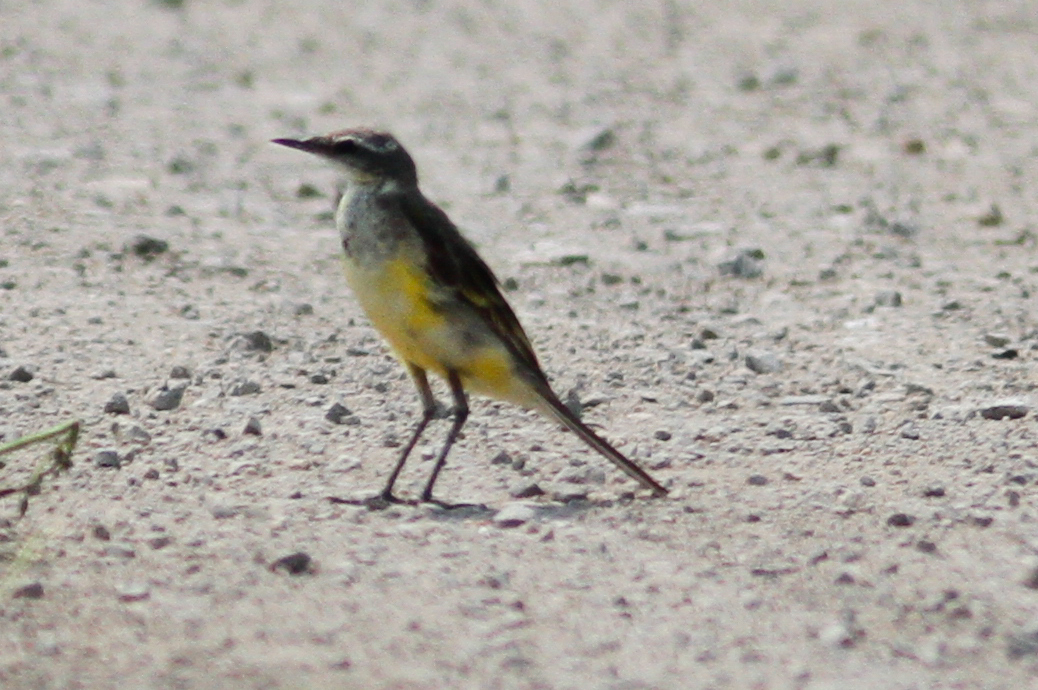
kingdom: Animalia
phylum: Chordata
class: Aves
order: Passeriformes
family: Motacillidae
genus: Motacilla
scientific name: Motacilla cinerea
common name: Grey wagtail
